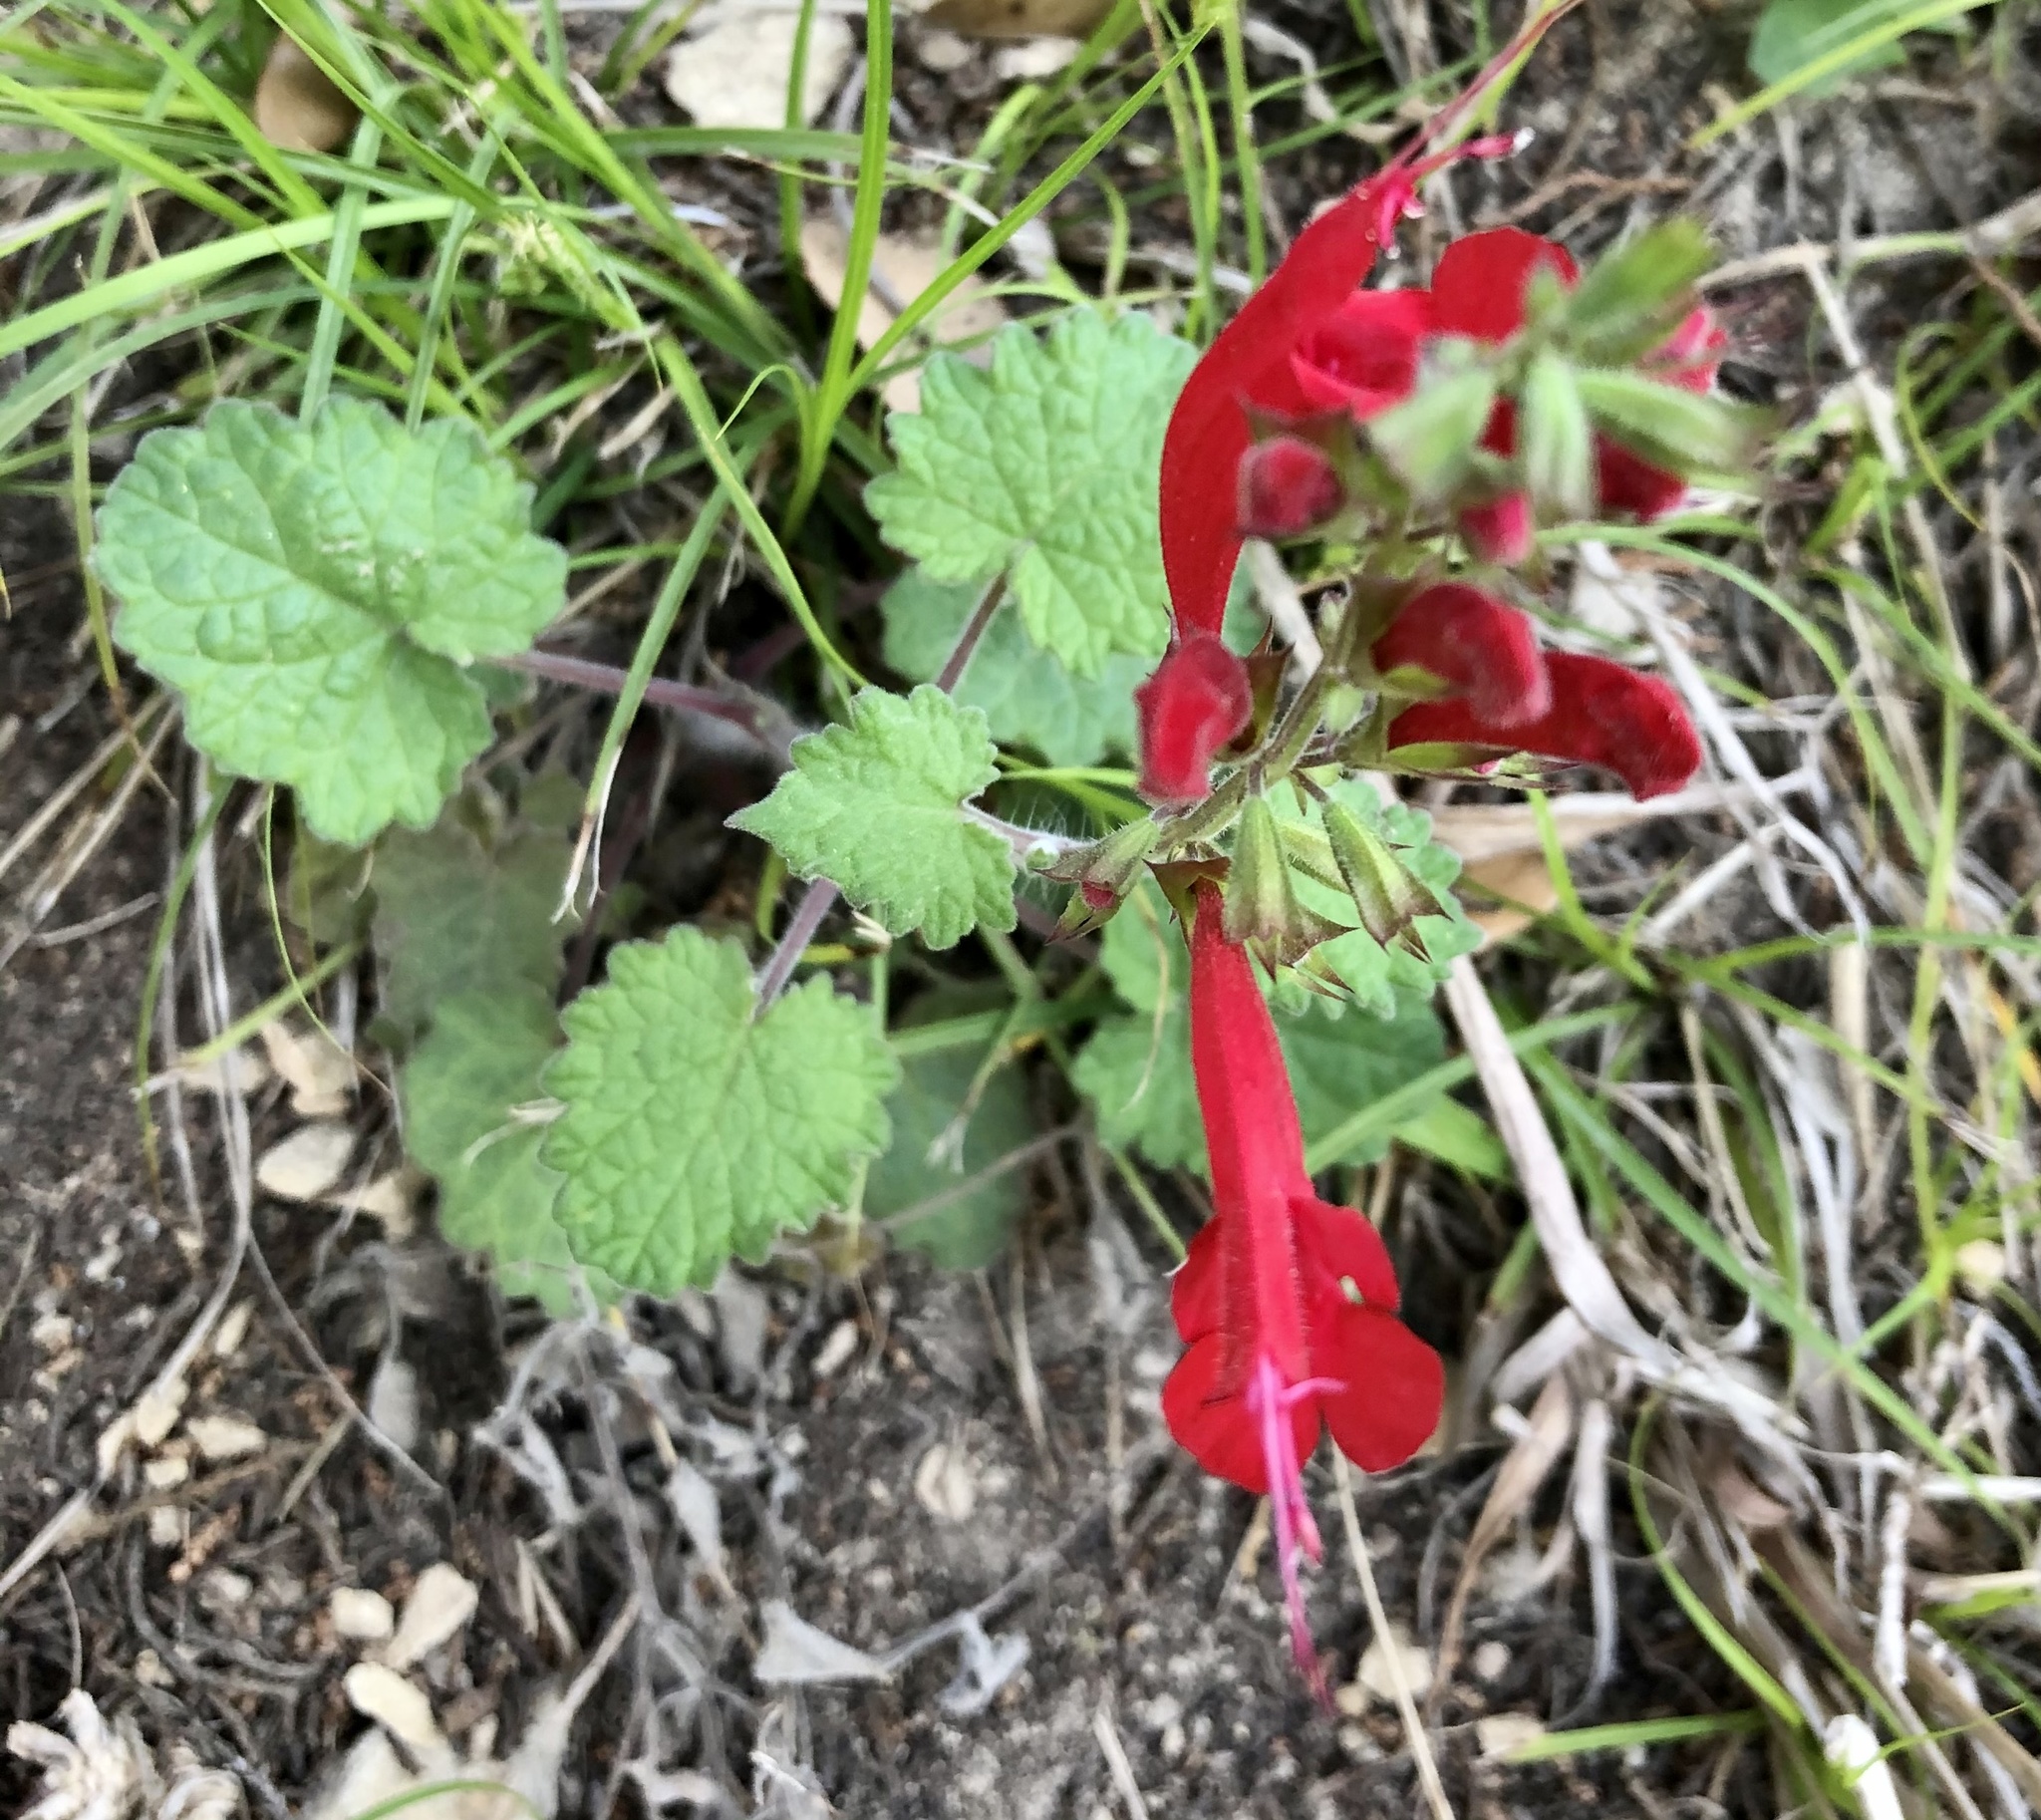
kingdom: Plantae
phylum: Tracheophyta
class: Magnoliopsida
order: Lamiales
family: Lamiaceae
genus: Salvia
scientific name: Salvia roemeriana
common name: Cedar sage
